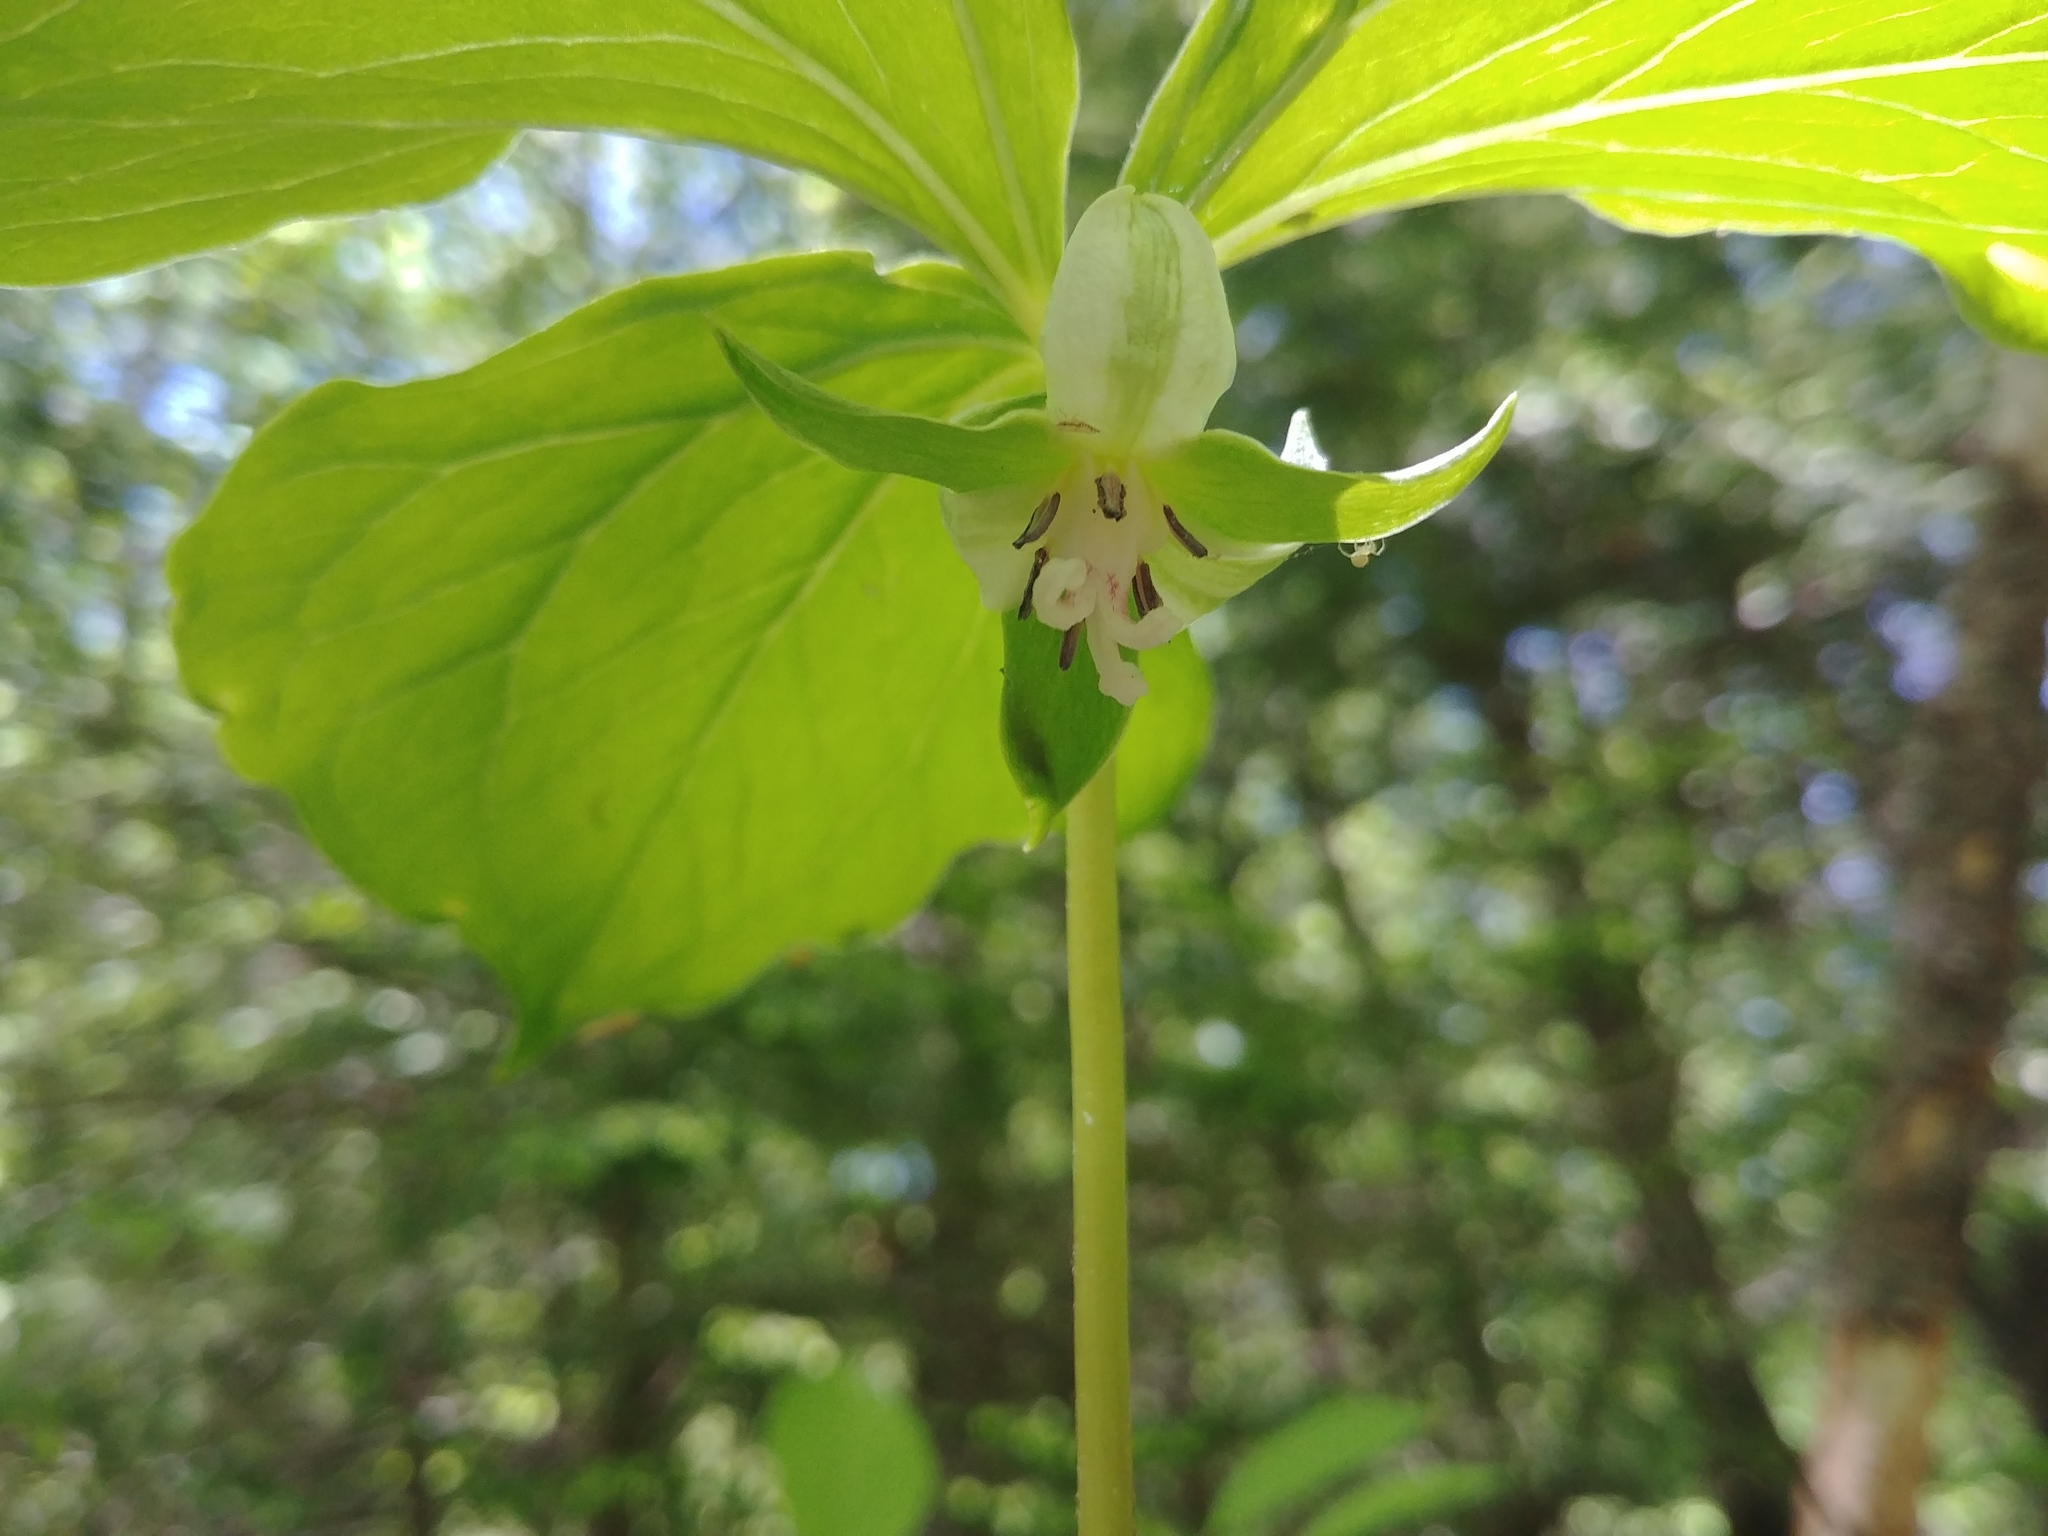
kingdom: Plantae
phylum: Tracheophyta
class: Liliopsida
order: Liliales
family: Melanthiaceae
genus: Trillium
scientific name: Trillium cernuum
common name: Nodding trillium
